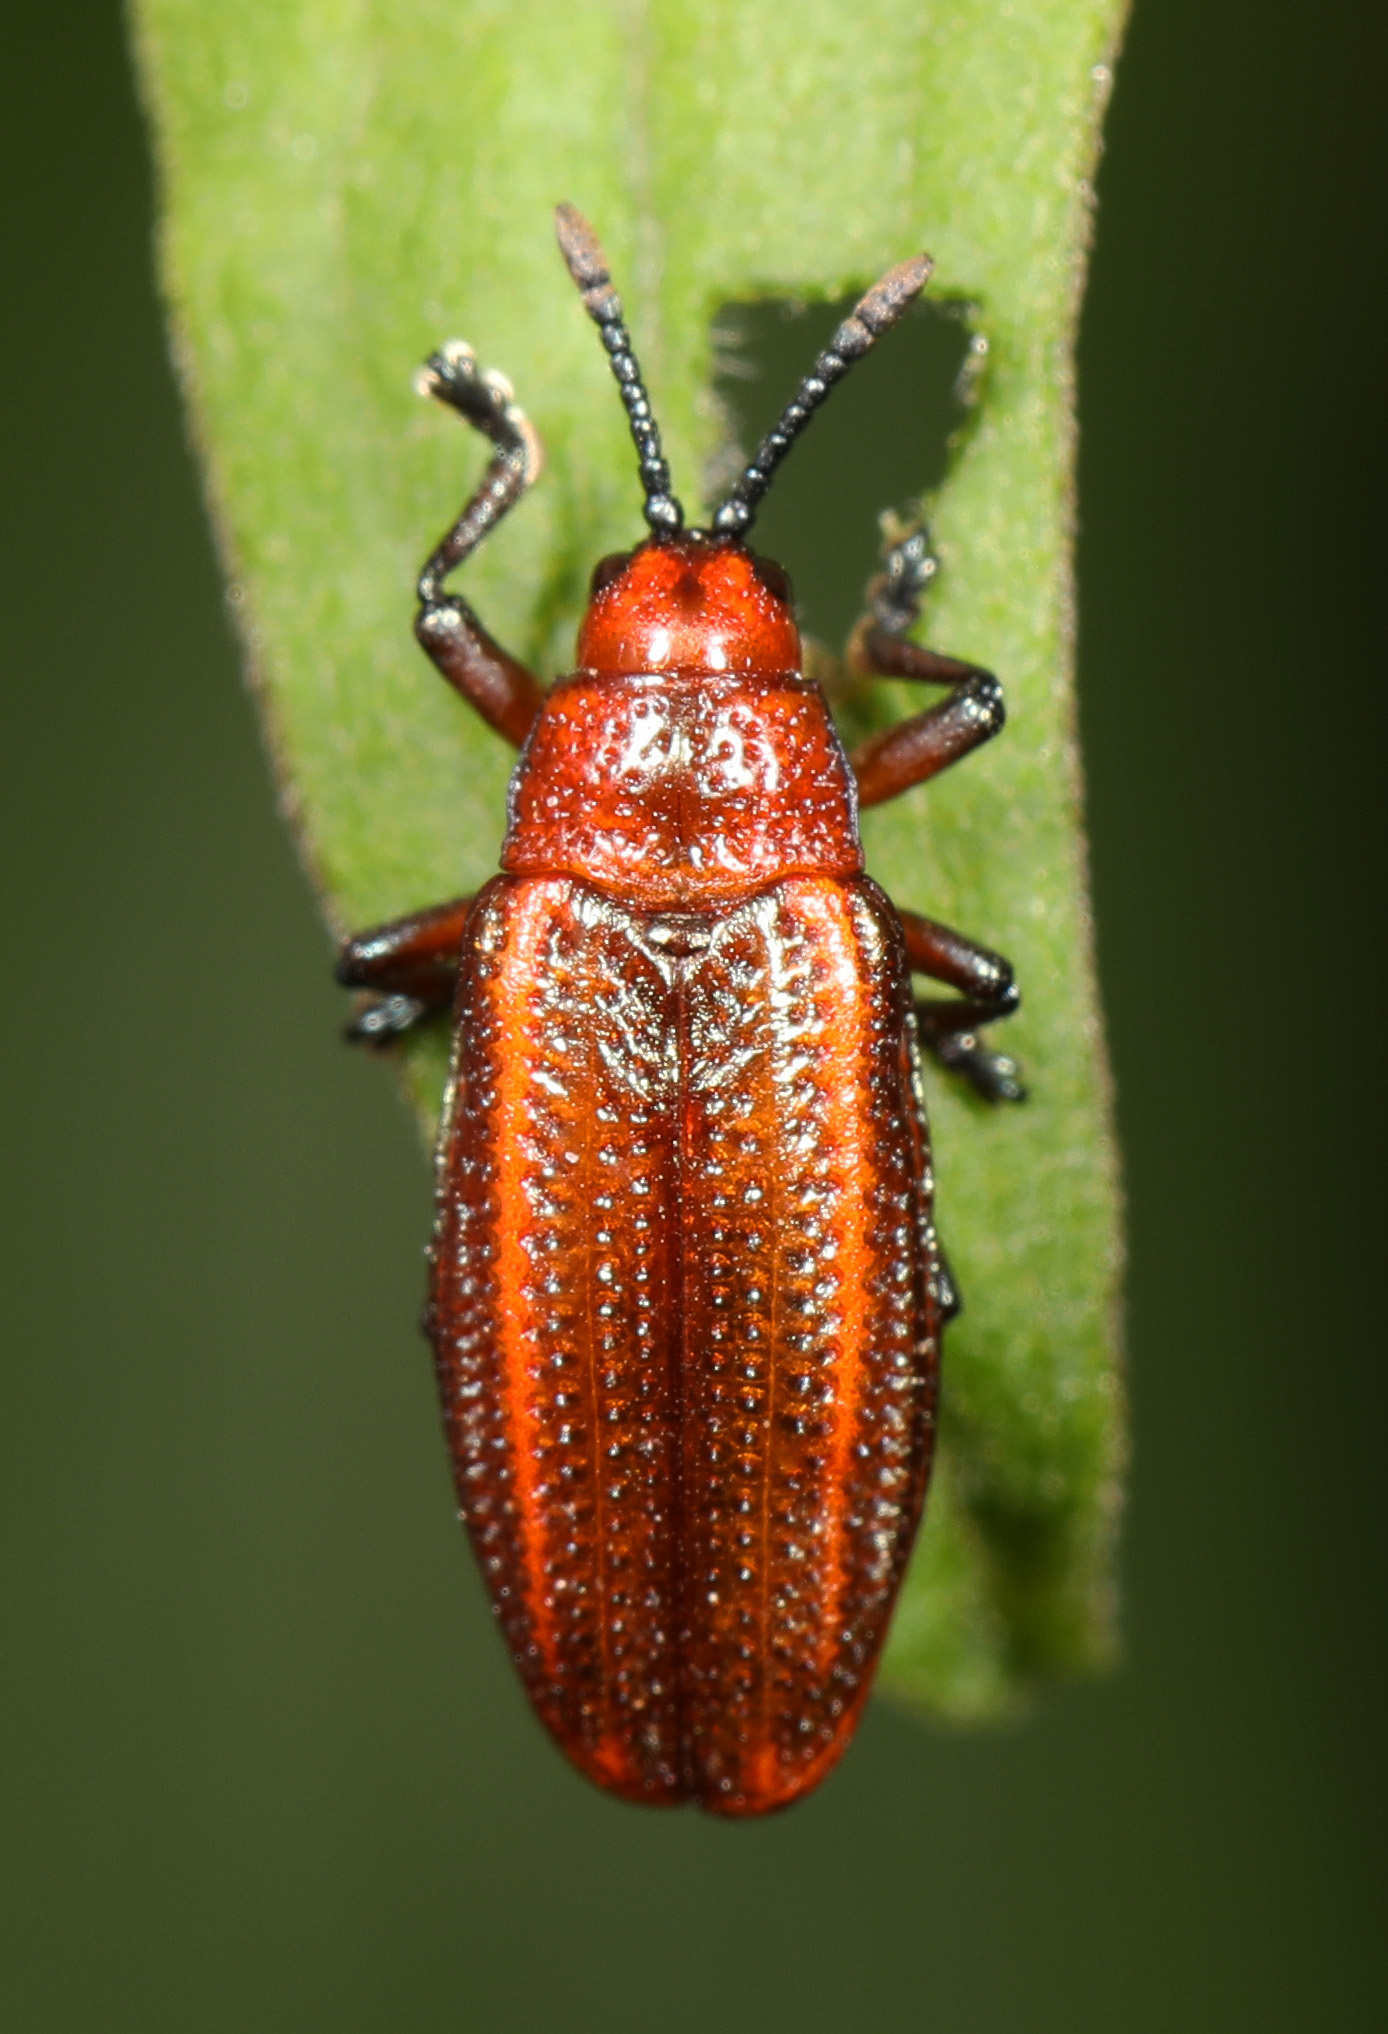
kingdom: Animalia
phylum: Arthropoda
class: Insecta
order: Coleoptera
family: Chrysomelidae
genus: Microrhopala
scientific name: Microrhopala vittata
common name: Goldenrod leaf miner beetle
